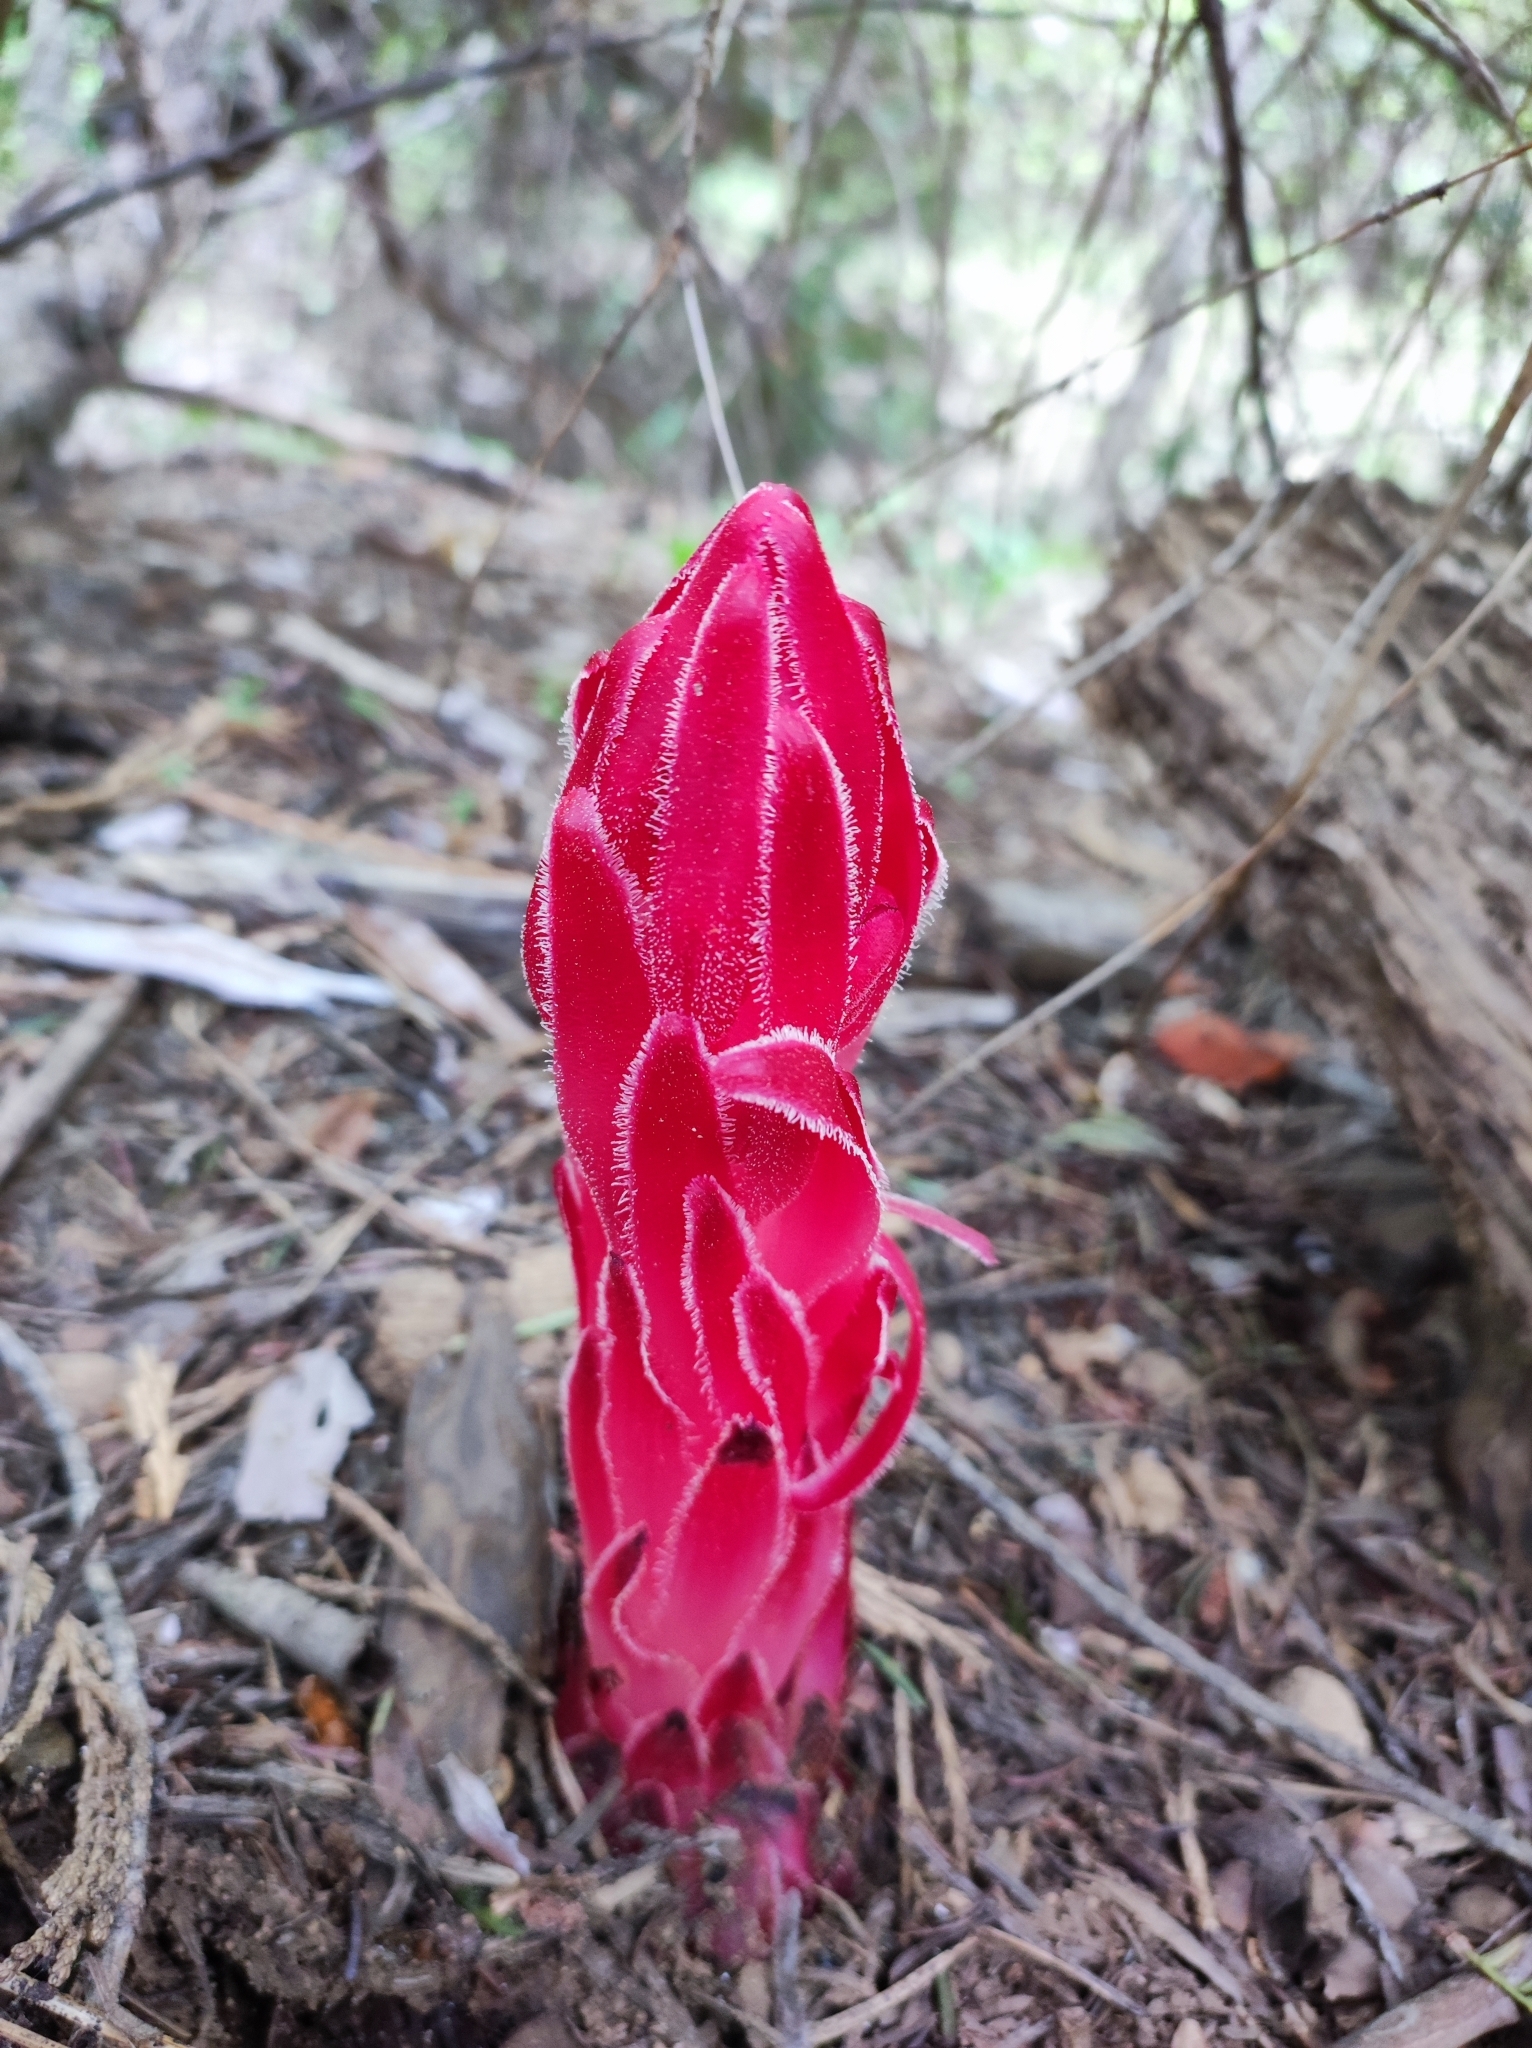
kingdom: Plantae
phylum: Tracheophyta
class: Magnoliopsida
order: Ericales
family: Ericaceae
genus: Sarcodes
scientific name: Sarcodes sanguinea
